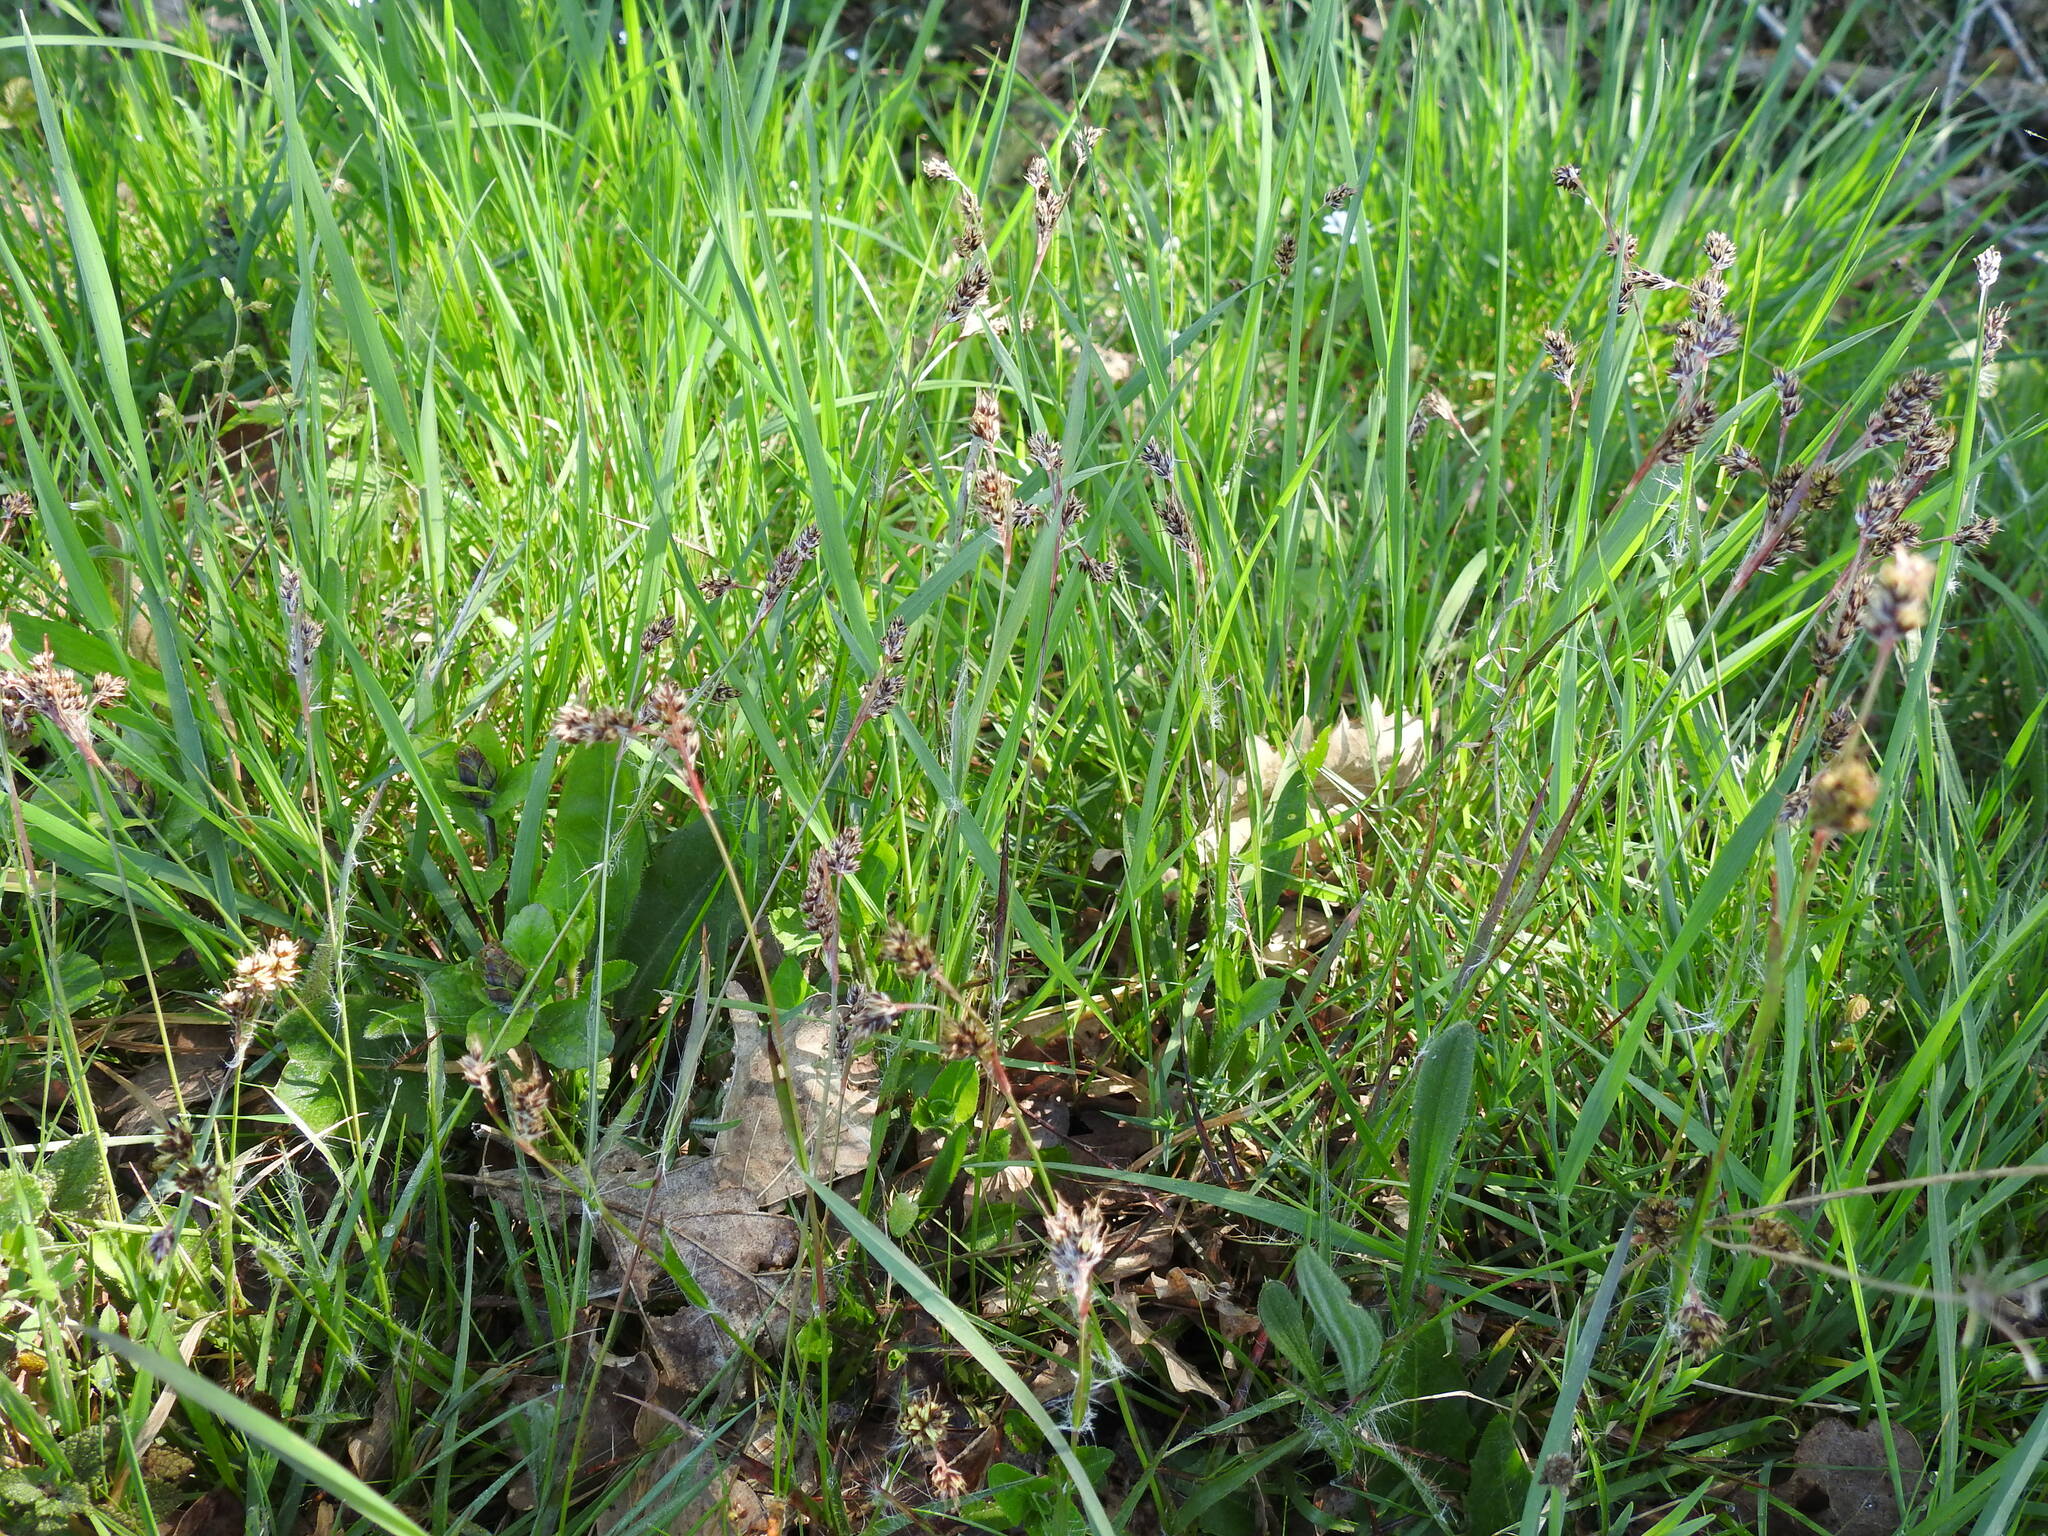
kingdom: Plantae
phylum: Tracheophyta
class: Liliopsida
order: Poales
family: Juncaceae
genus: Luzula
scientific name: Luzula campestris
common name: Field wood-rush
